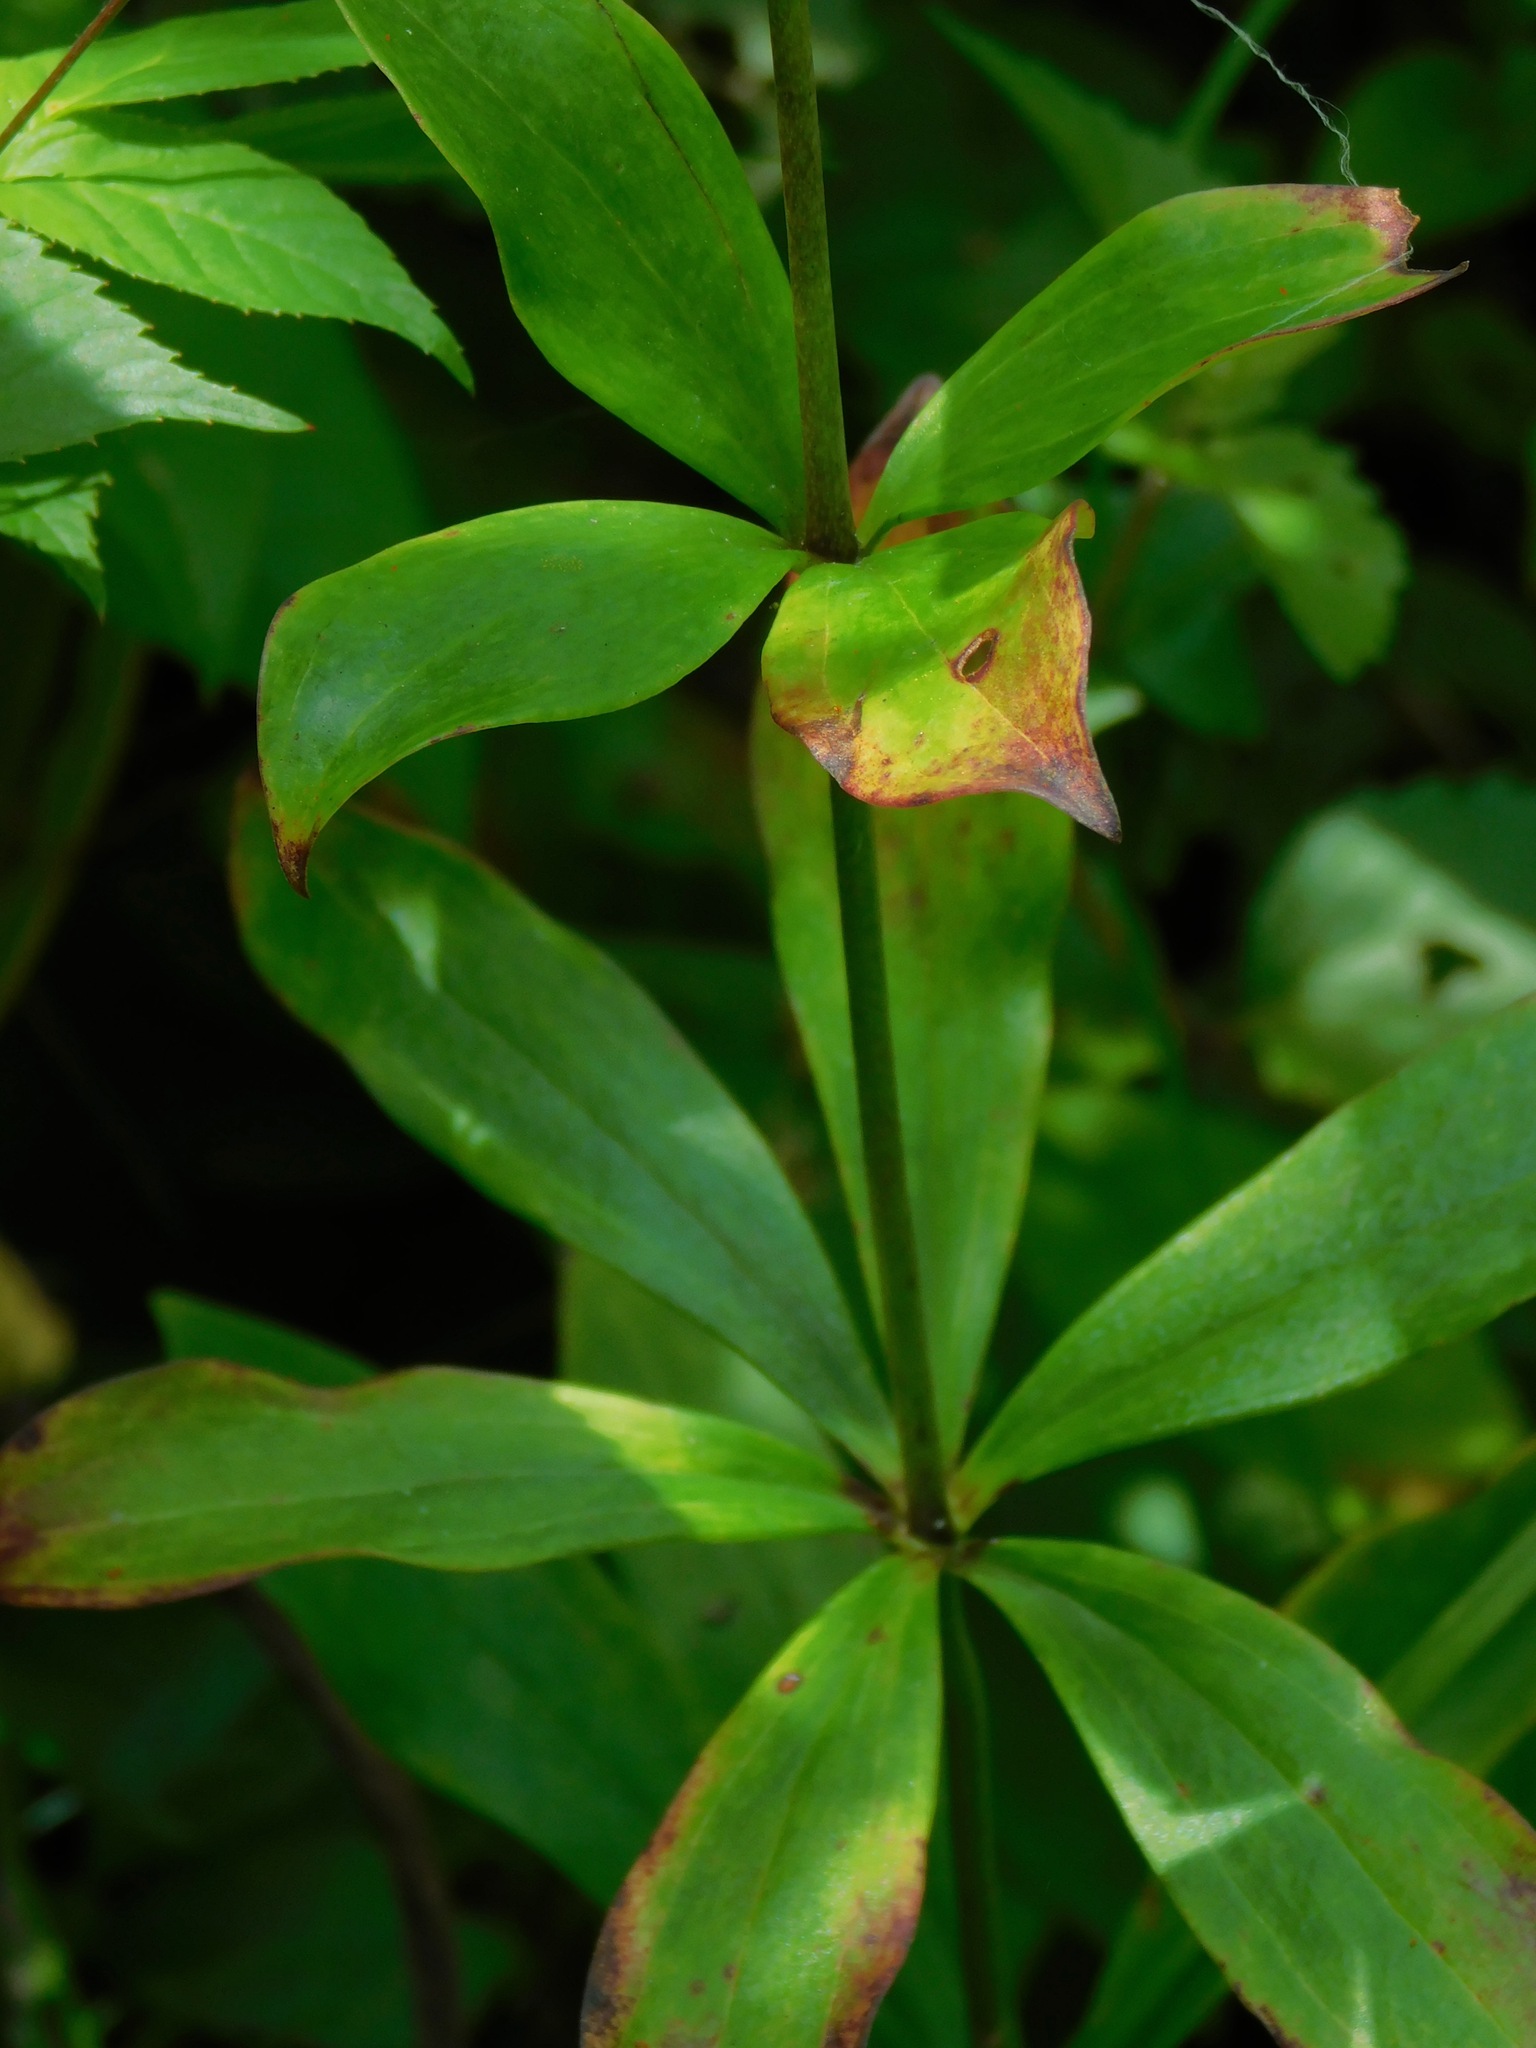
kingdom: Plantae
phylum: Tracheophyta
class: Liliopsida
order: Liliales
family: Liliaceae
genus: Lilium
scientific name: Lilium michauxii
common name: Carolina lily
